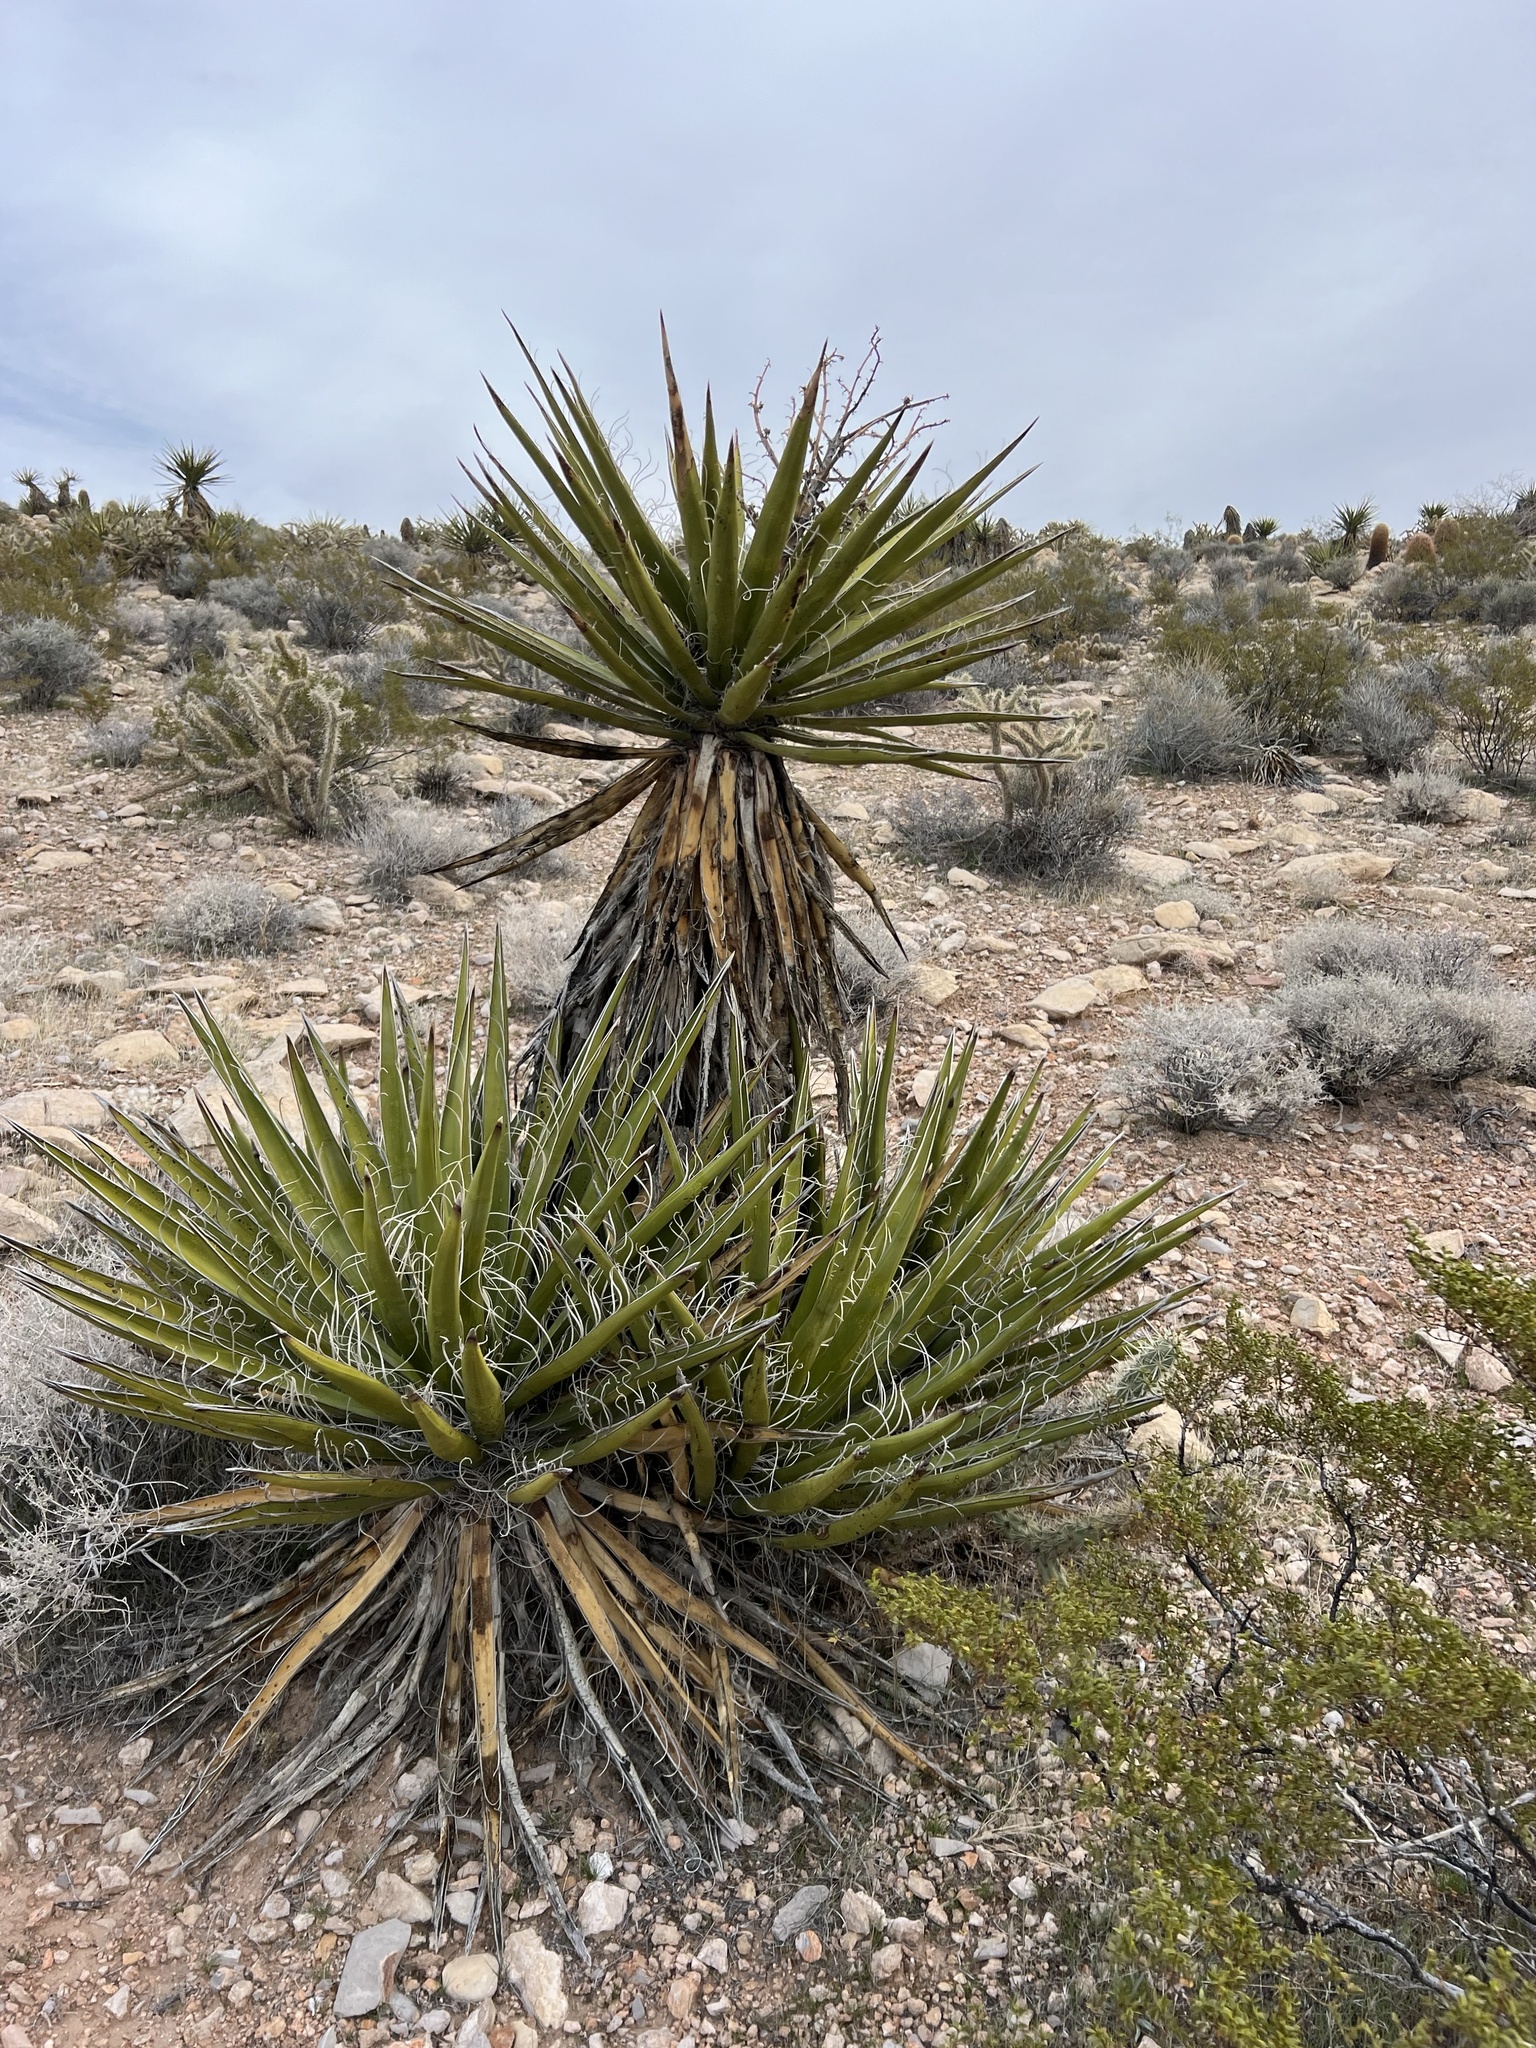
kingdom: Plantae
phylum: Tracheophyta
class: Liliopsida
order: Asparagales
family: Asparagaceae
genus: Yucca
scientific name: Yucca schidigera
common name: Mojave yucca
